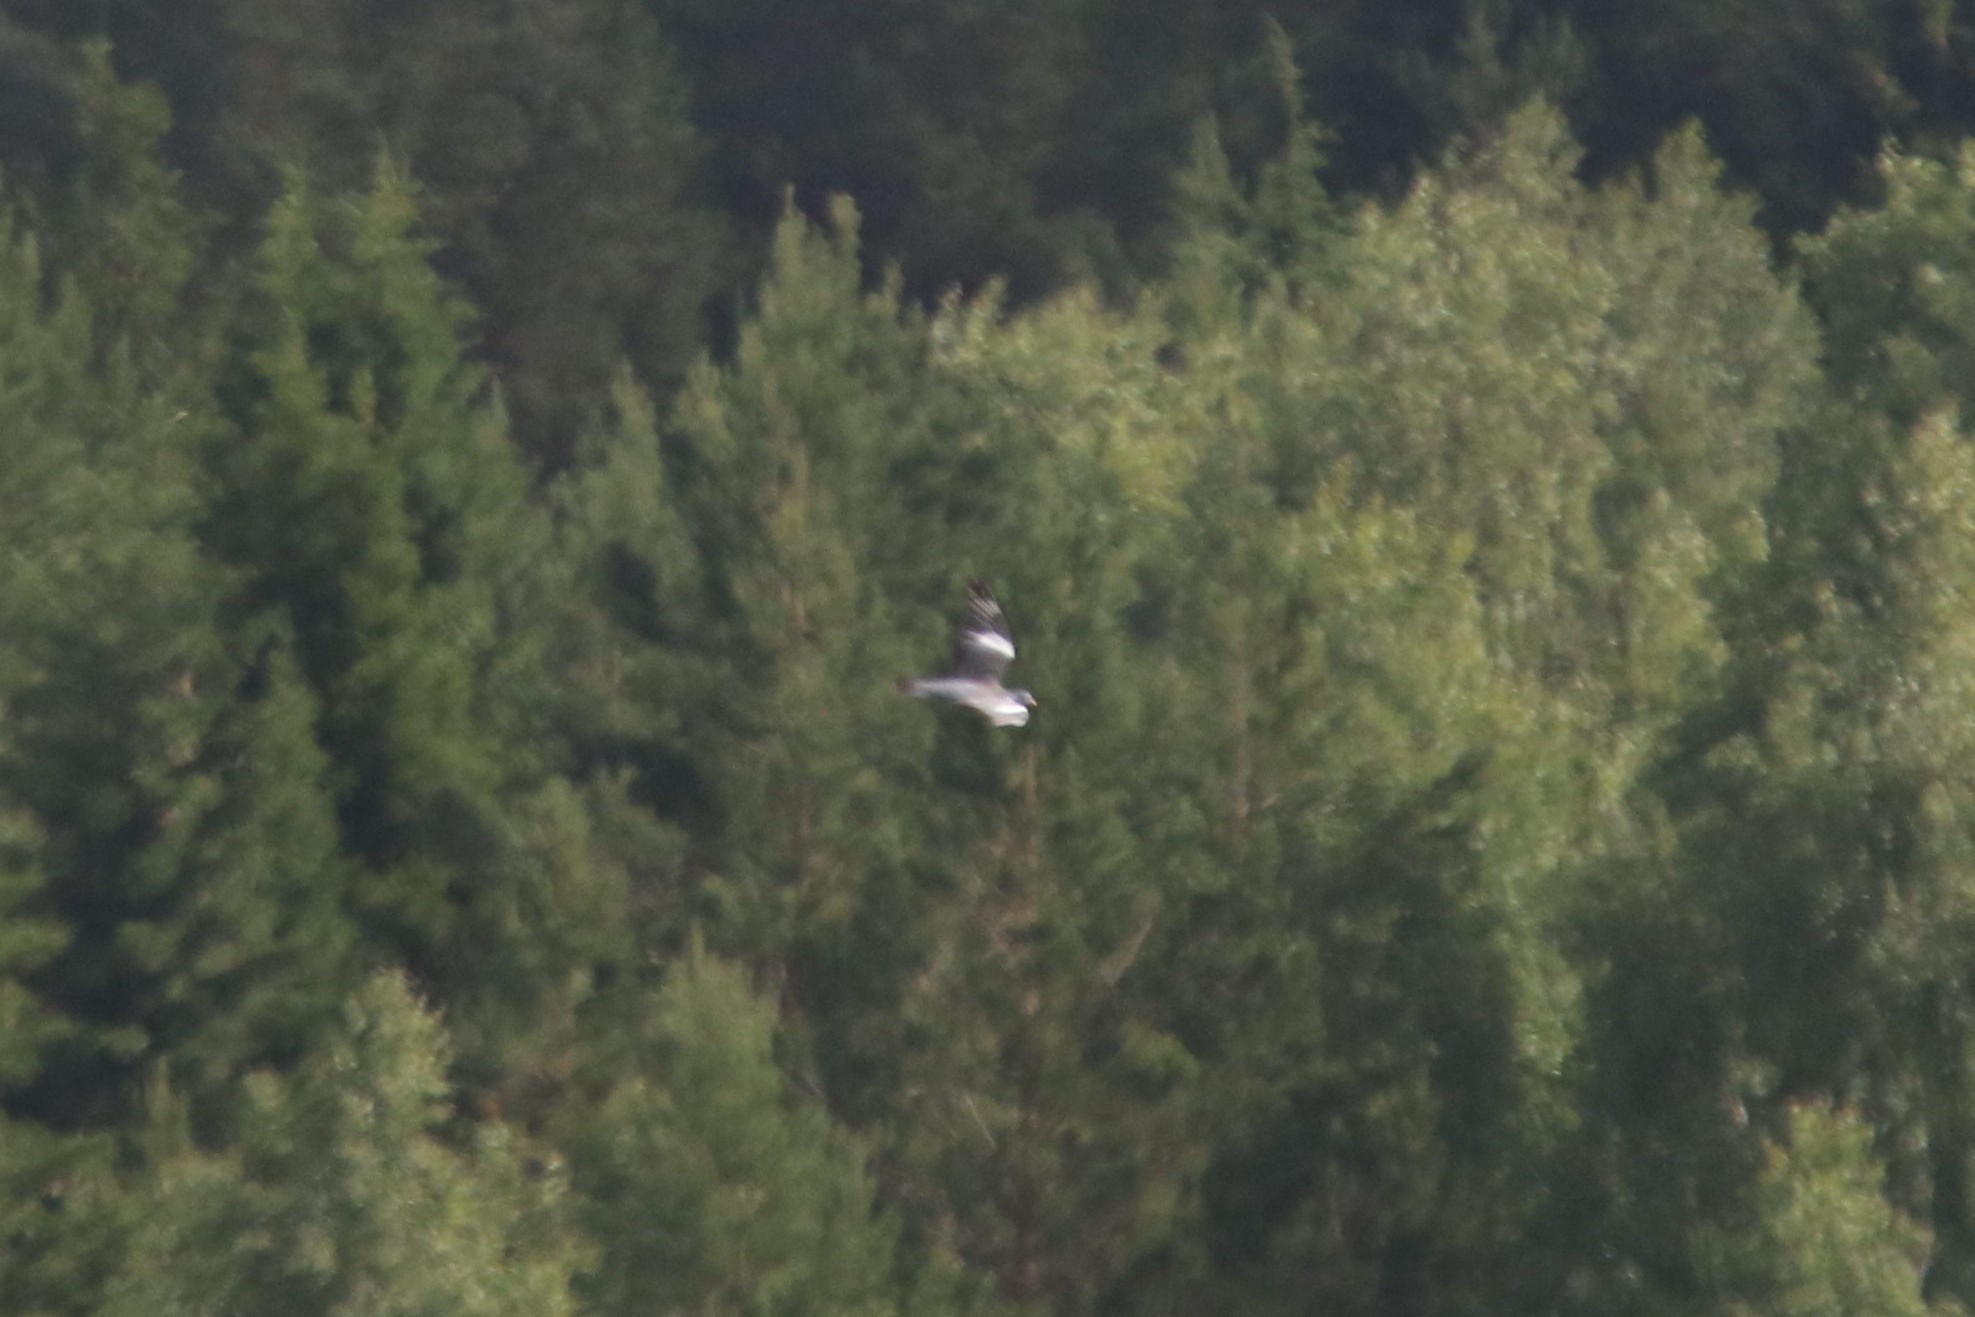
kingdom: Animalia
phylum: Chordata
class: Aves
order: Columbiformes
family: Columbidae
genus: Columba
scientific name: Columba palumbus
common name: Common wood pigeon
